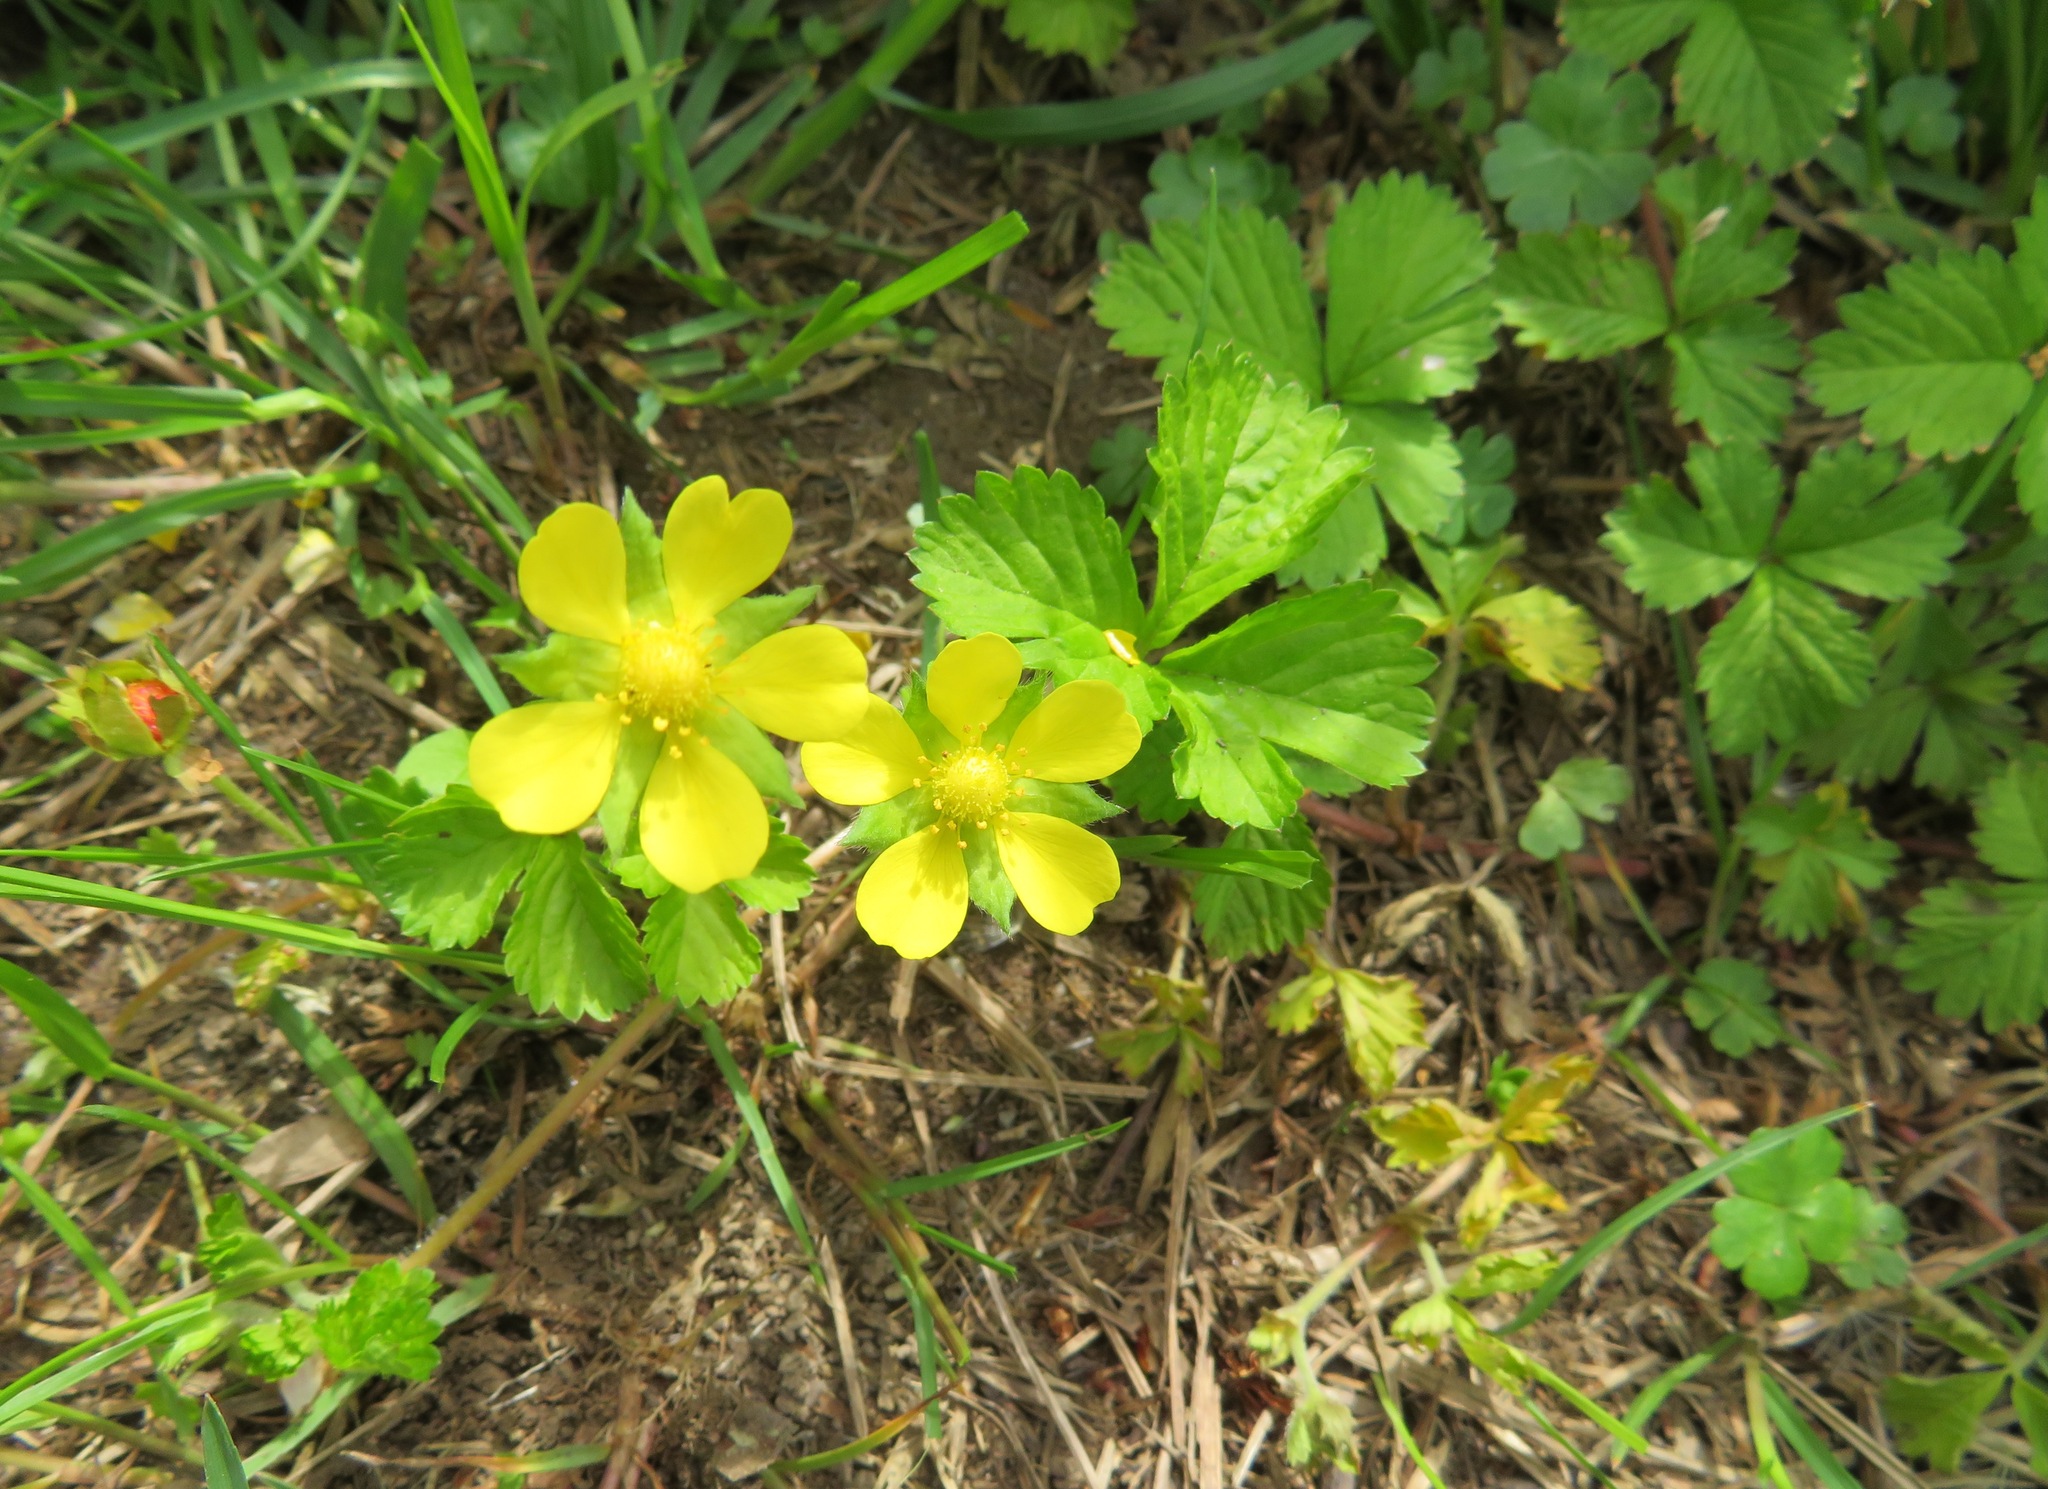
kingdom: Plantae
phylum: Tracheophyta
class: Magnoliopsida
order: Rosales
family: Rosaceae
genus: Potentilla
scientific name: Potentilla wallichiana
